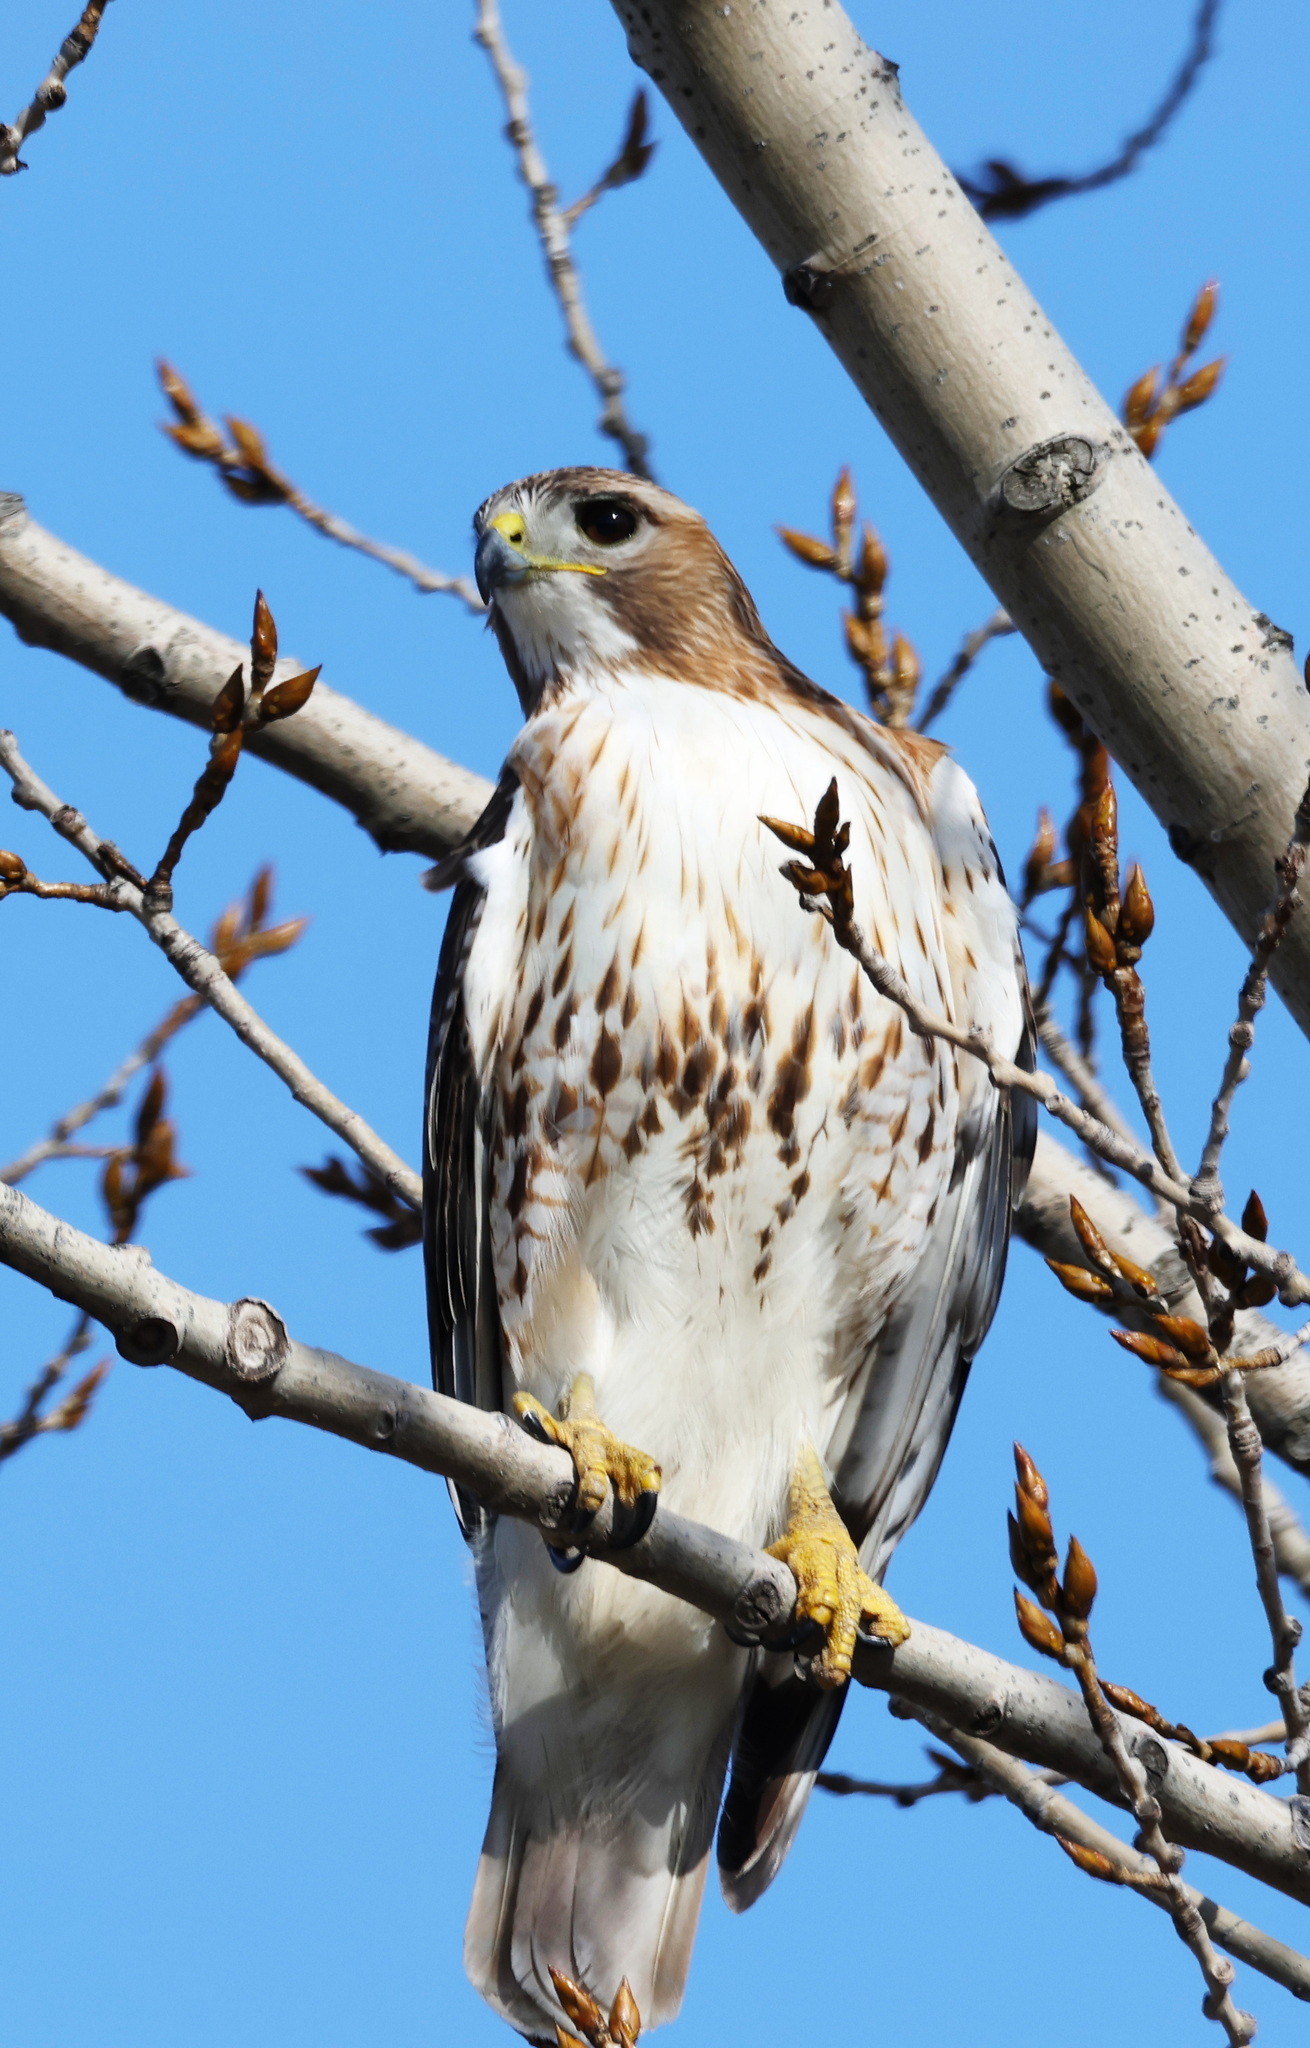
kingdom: Animalia
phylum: Chordata
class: Aves
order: Accipitriformes
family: Accipitridae
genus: Buteo
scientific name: Buteo jamaicensis
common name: Red-tailed hawk
